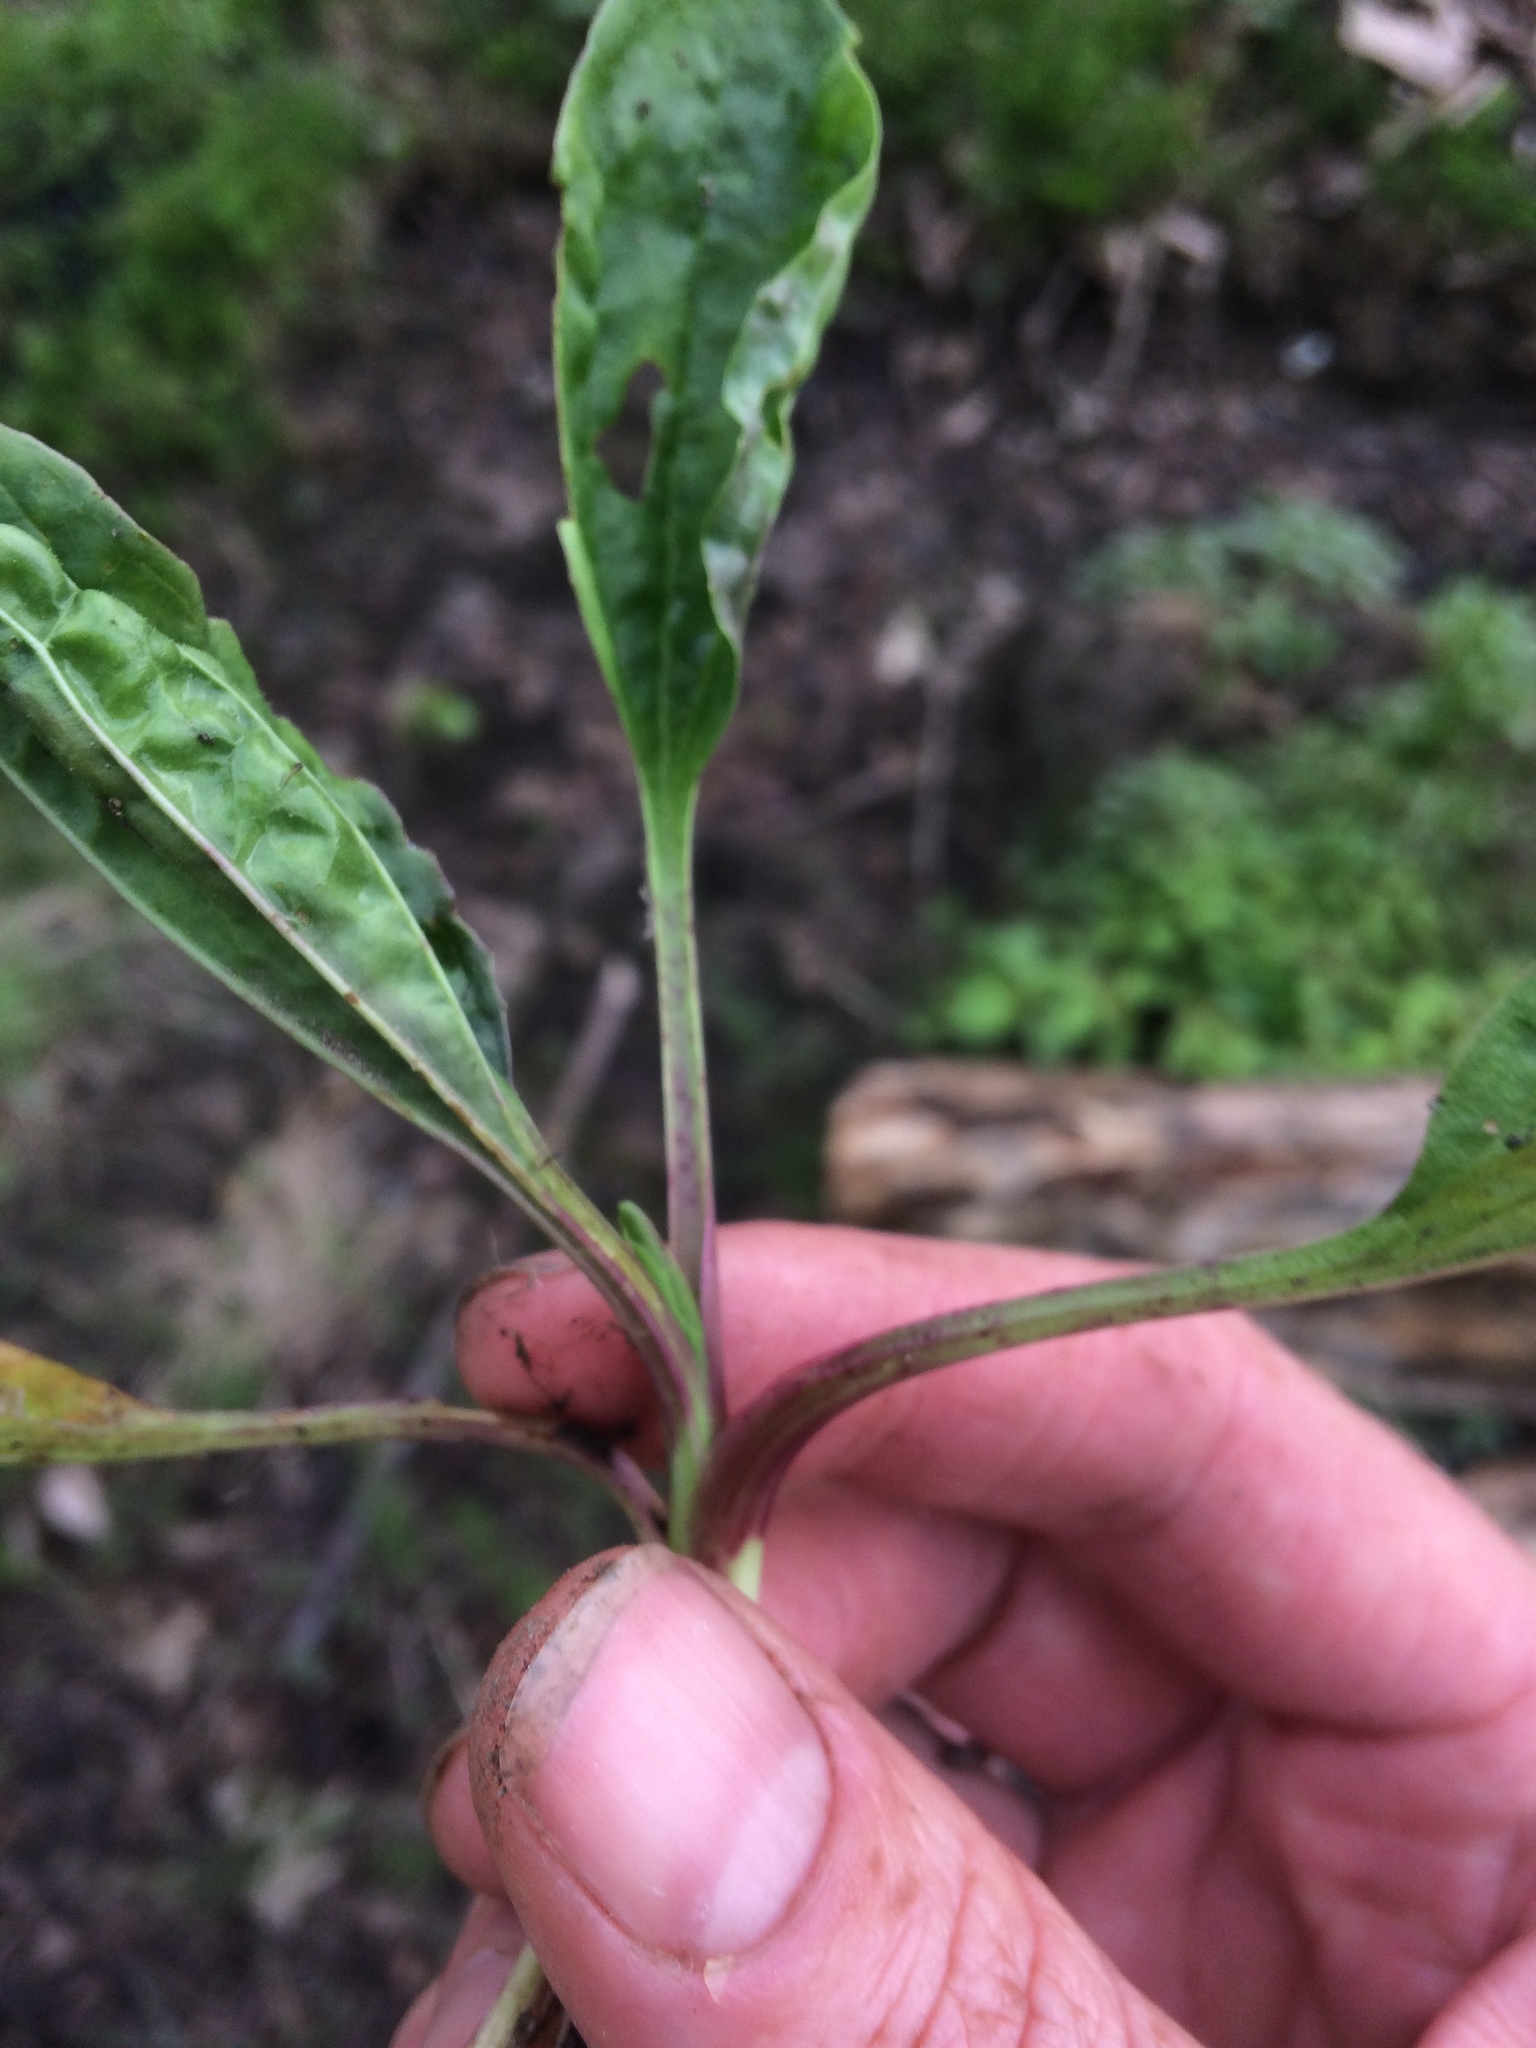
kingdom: Plantae
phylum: Tracheophyta
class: Magnoliopsida
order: Lamiales
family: Plantaginaceae
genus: Plantago
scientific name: Plantago rugelii
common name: American plantain
